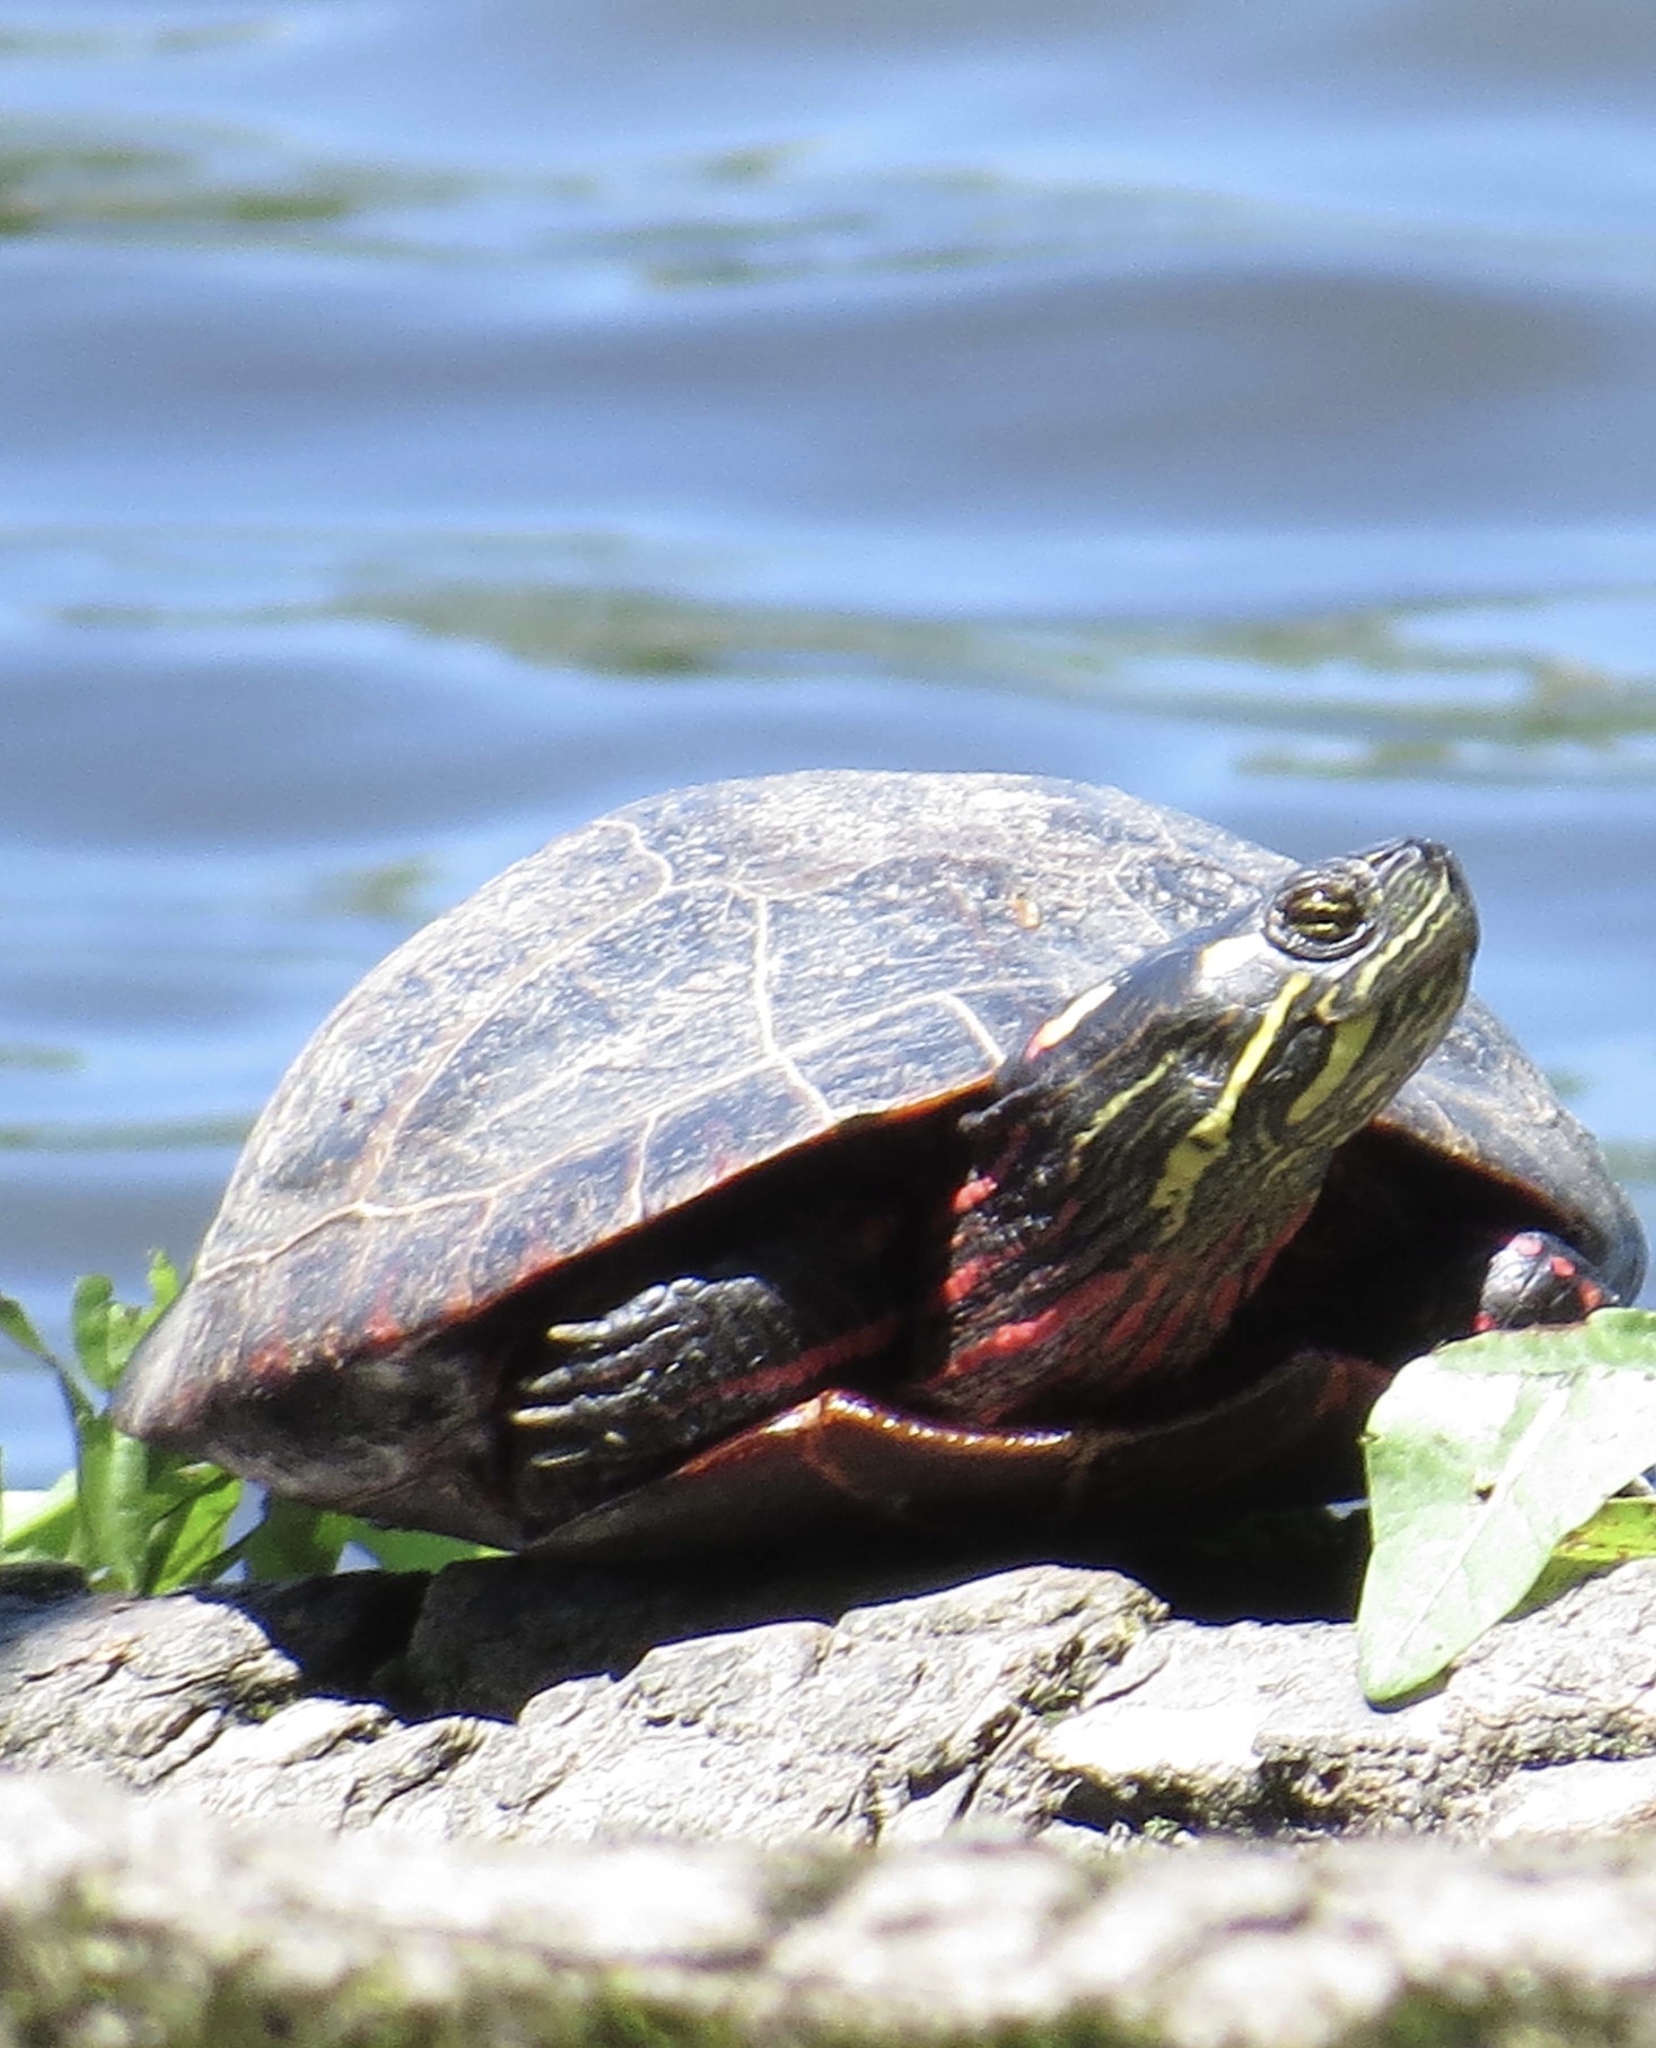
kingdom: Animalia
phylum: Chordata
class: Testudines
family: Emydidae
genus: Chrysemys
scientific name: Chrysemys picta
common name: Painted turtle
